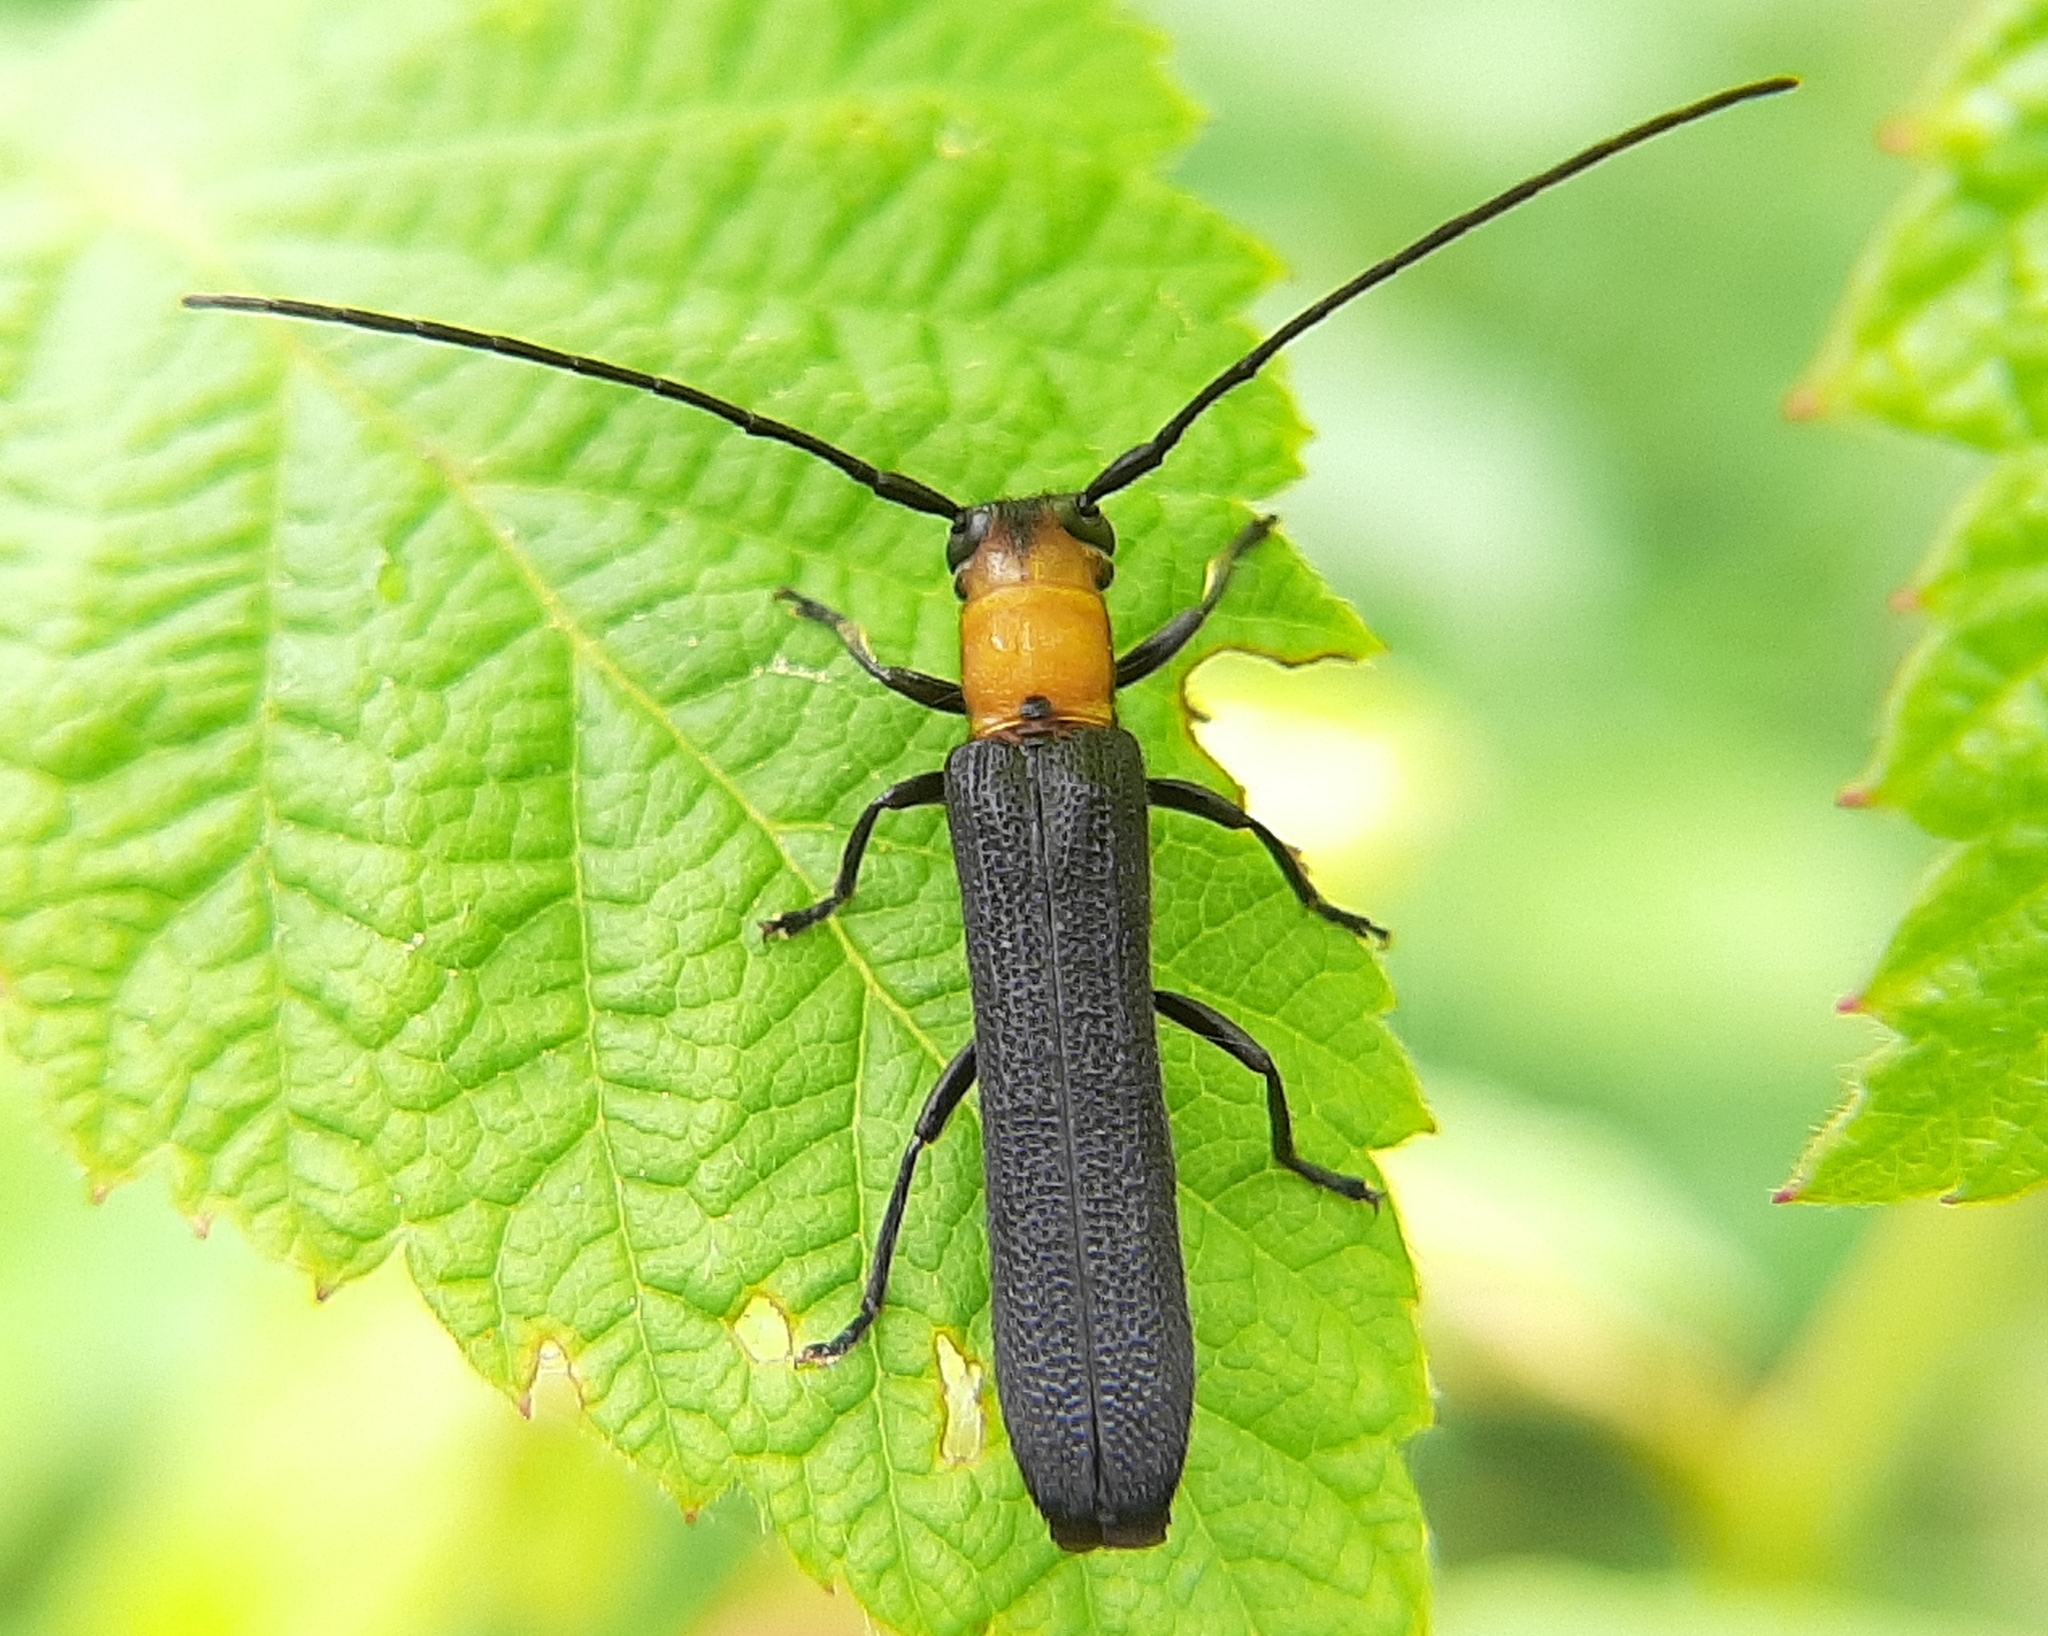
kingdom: Animalia
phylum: Arthropoda
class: Insecta
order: Coleoptera
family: Cerambycidae
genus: Oberea
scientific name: Oberea affinis
